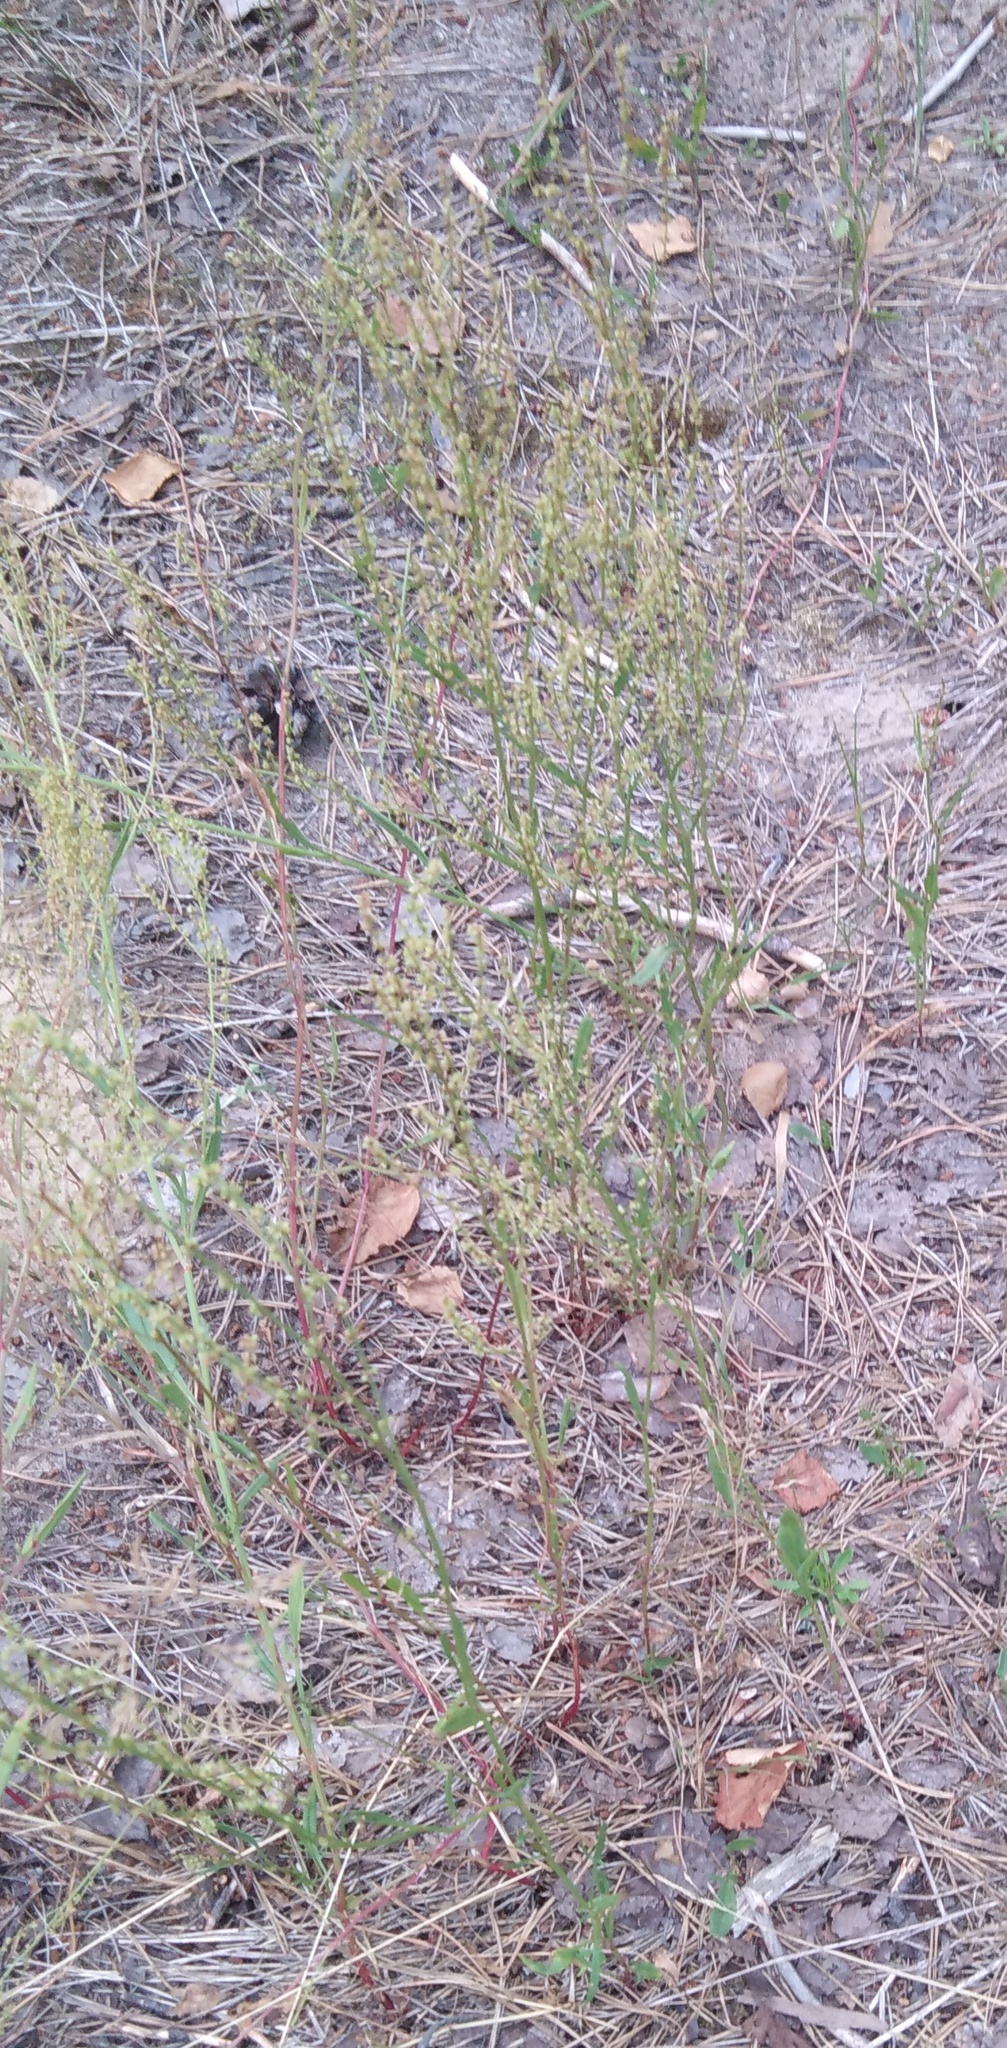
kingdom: Plantae
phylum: Tracheophyta
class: Magnoliopsida
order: Caryophyllales
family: Polygonaceae
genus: Rumex
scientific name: Rumex acetosella
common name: Common sheep sorrel
